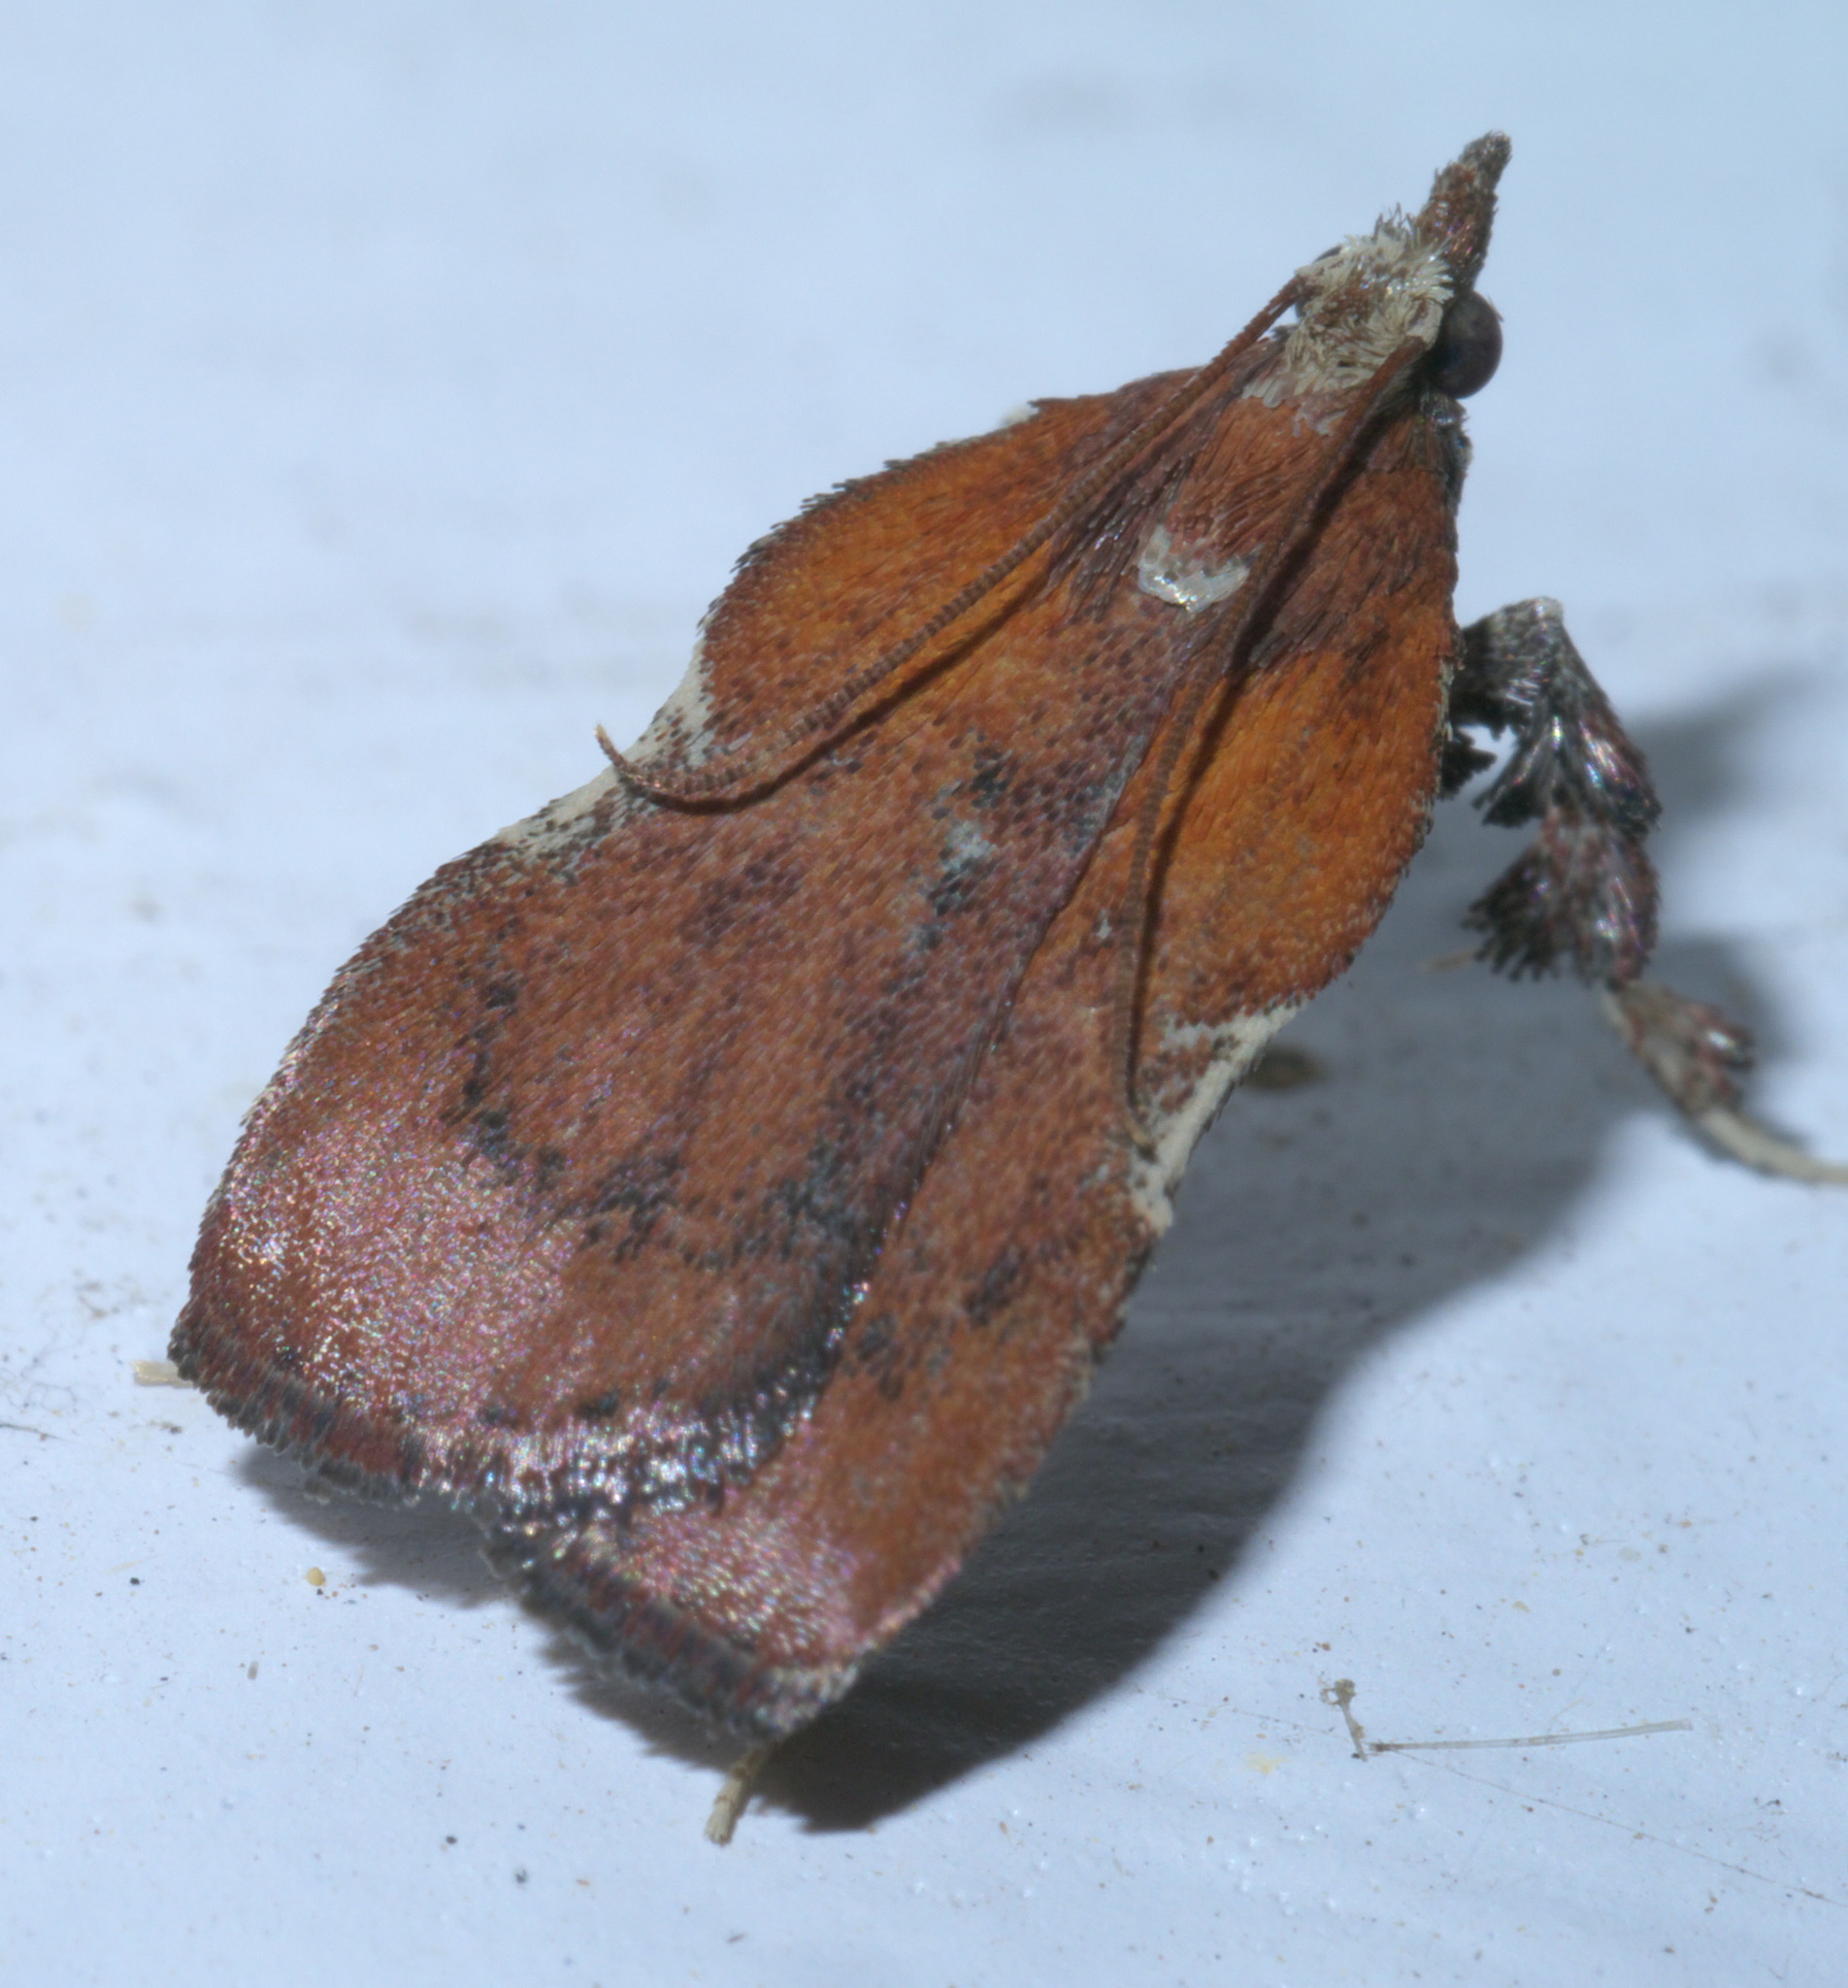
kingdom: Animalia
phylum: Arthropoda
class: Insecta
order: Lepidoptera
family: Pyralidae
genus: Galasa
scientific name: Galasa nigrinodis
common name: Boxwood leaftier moth
